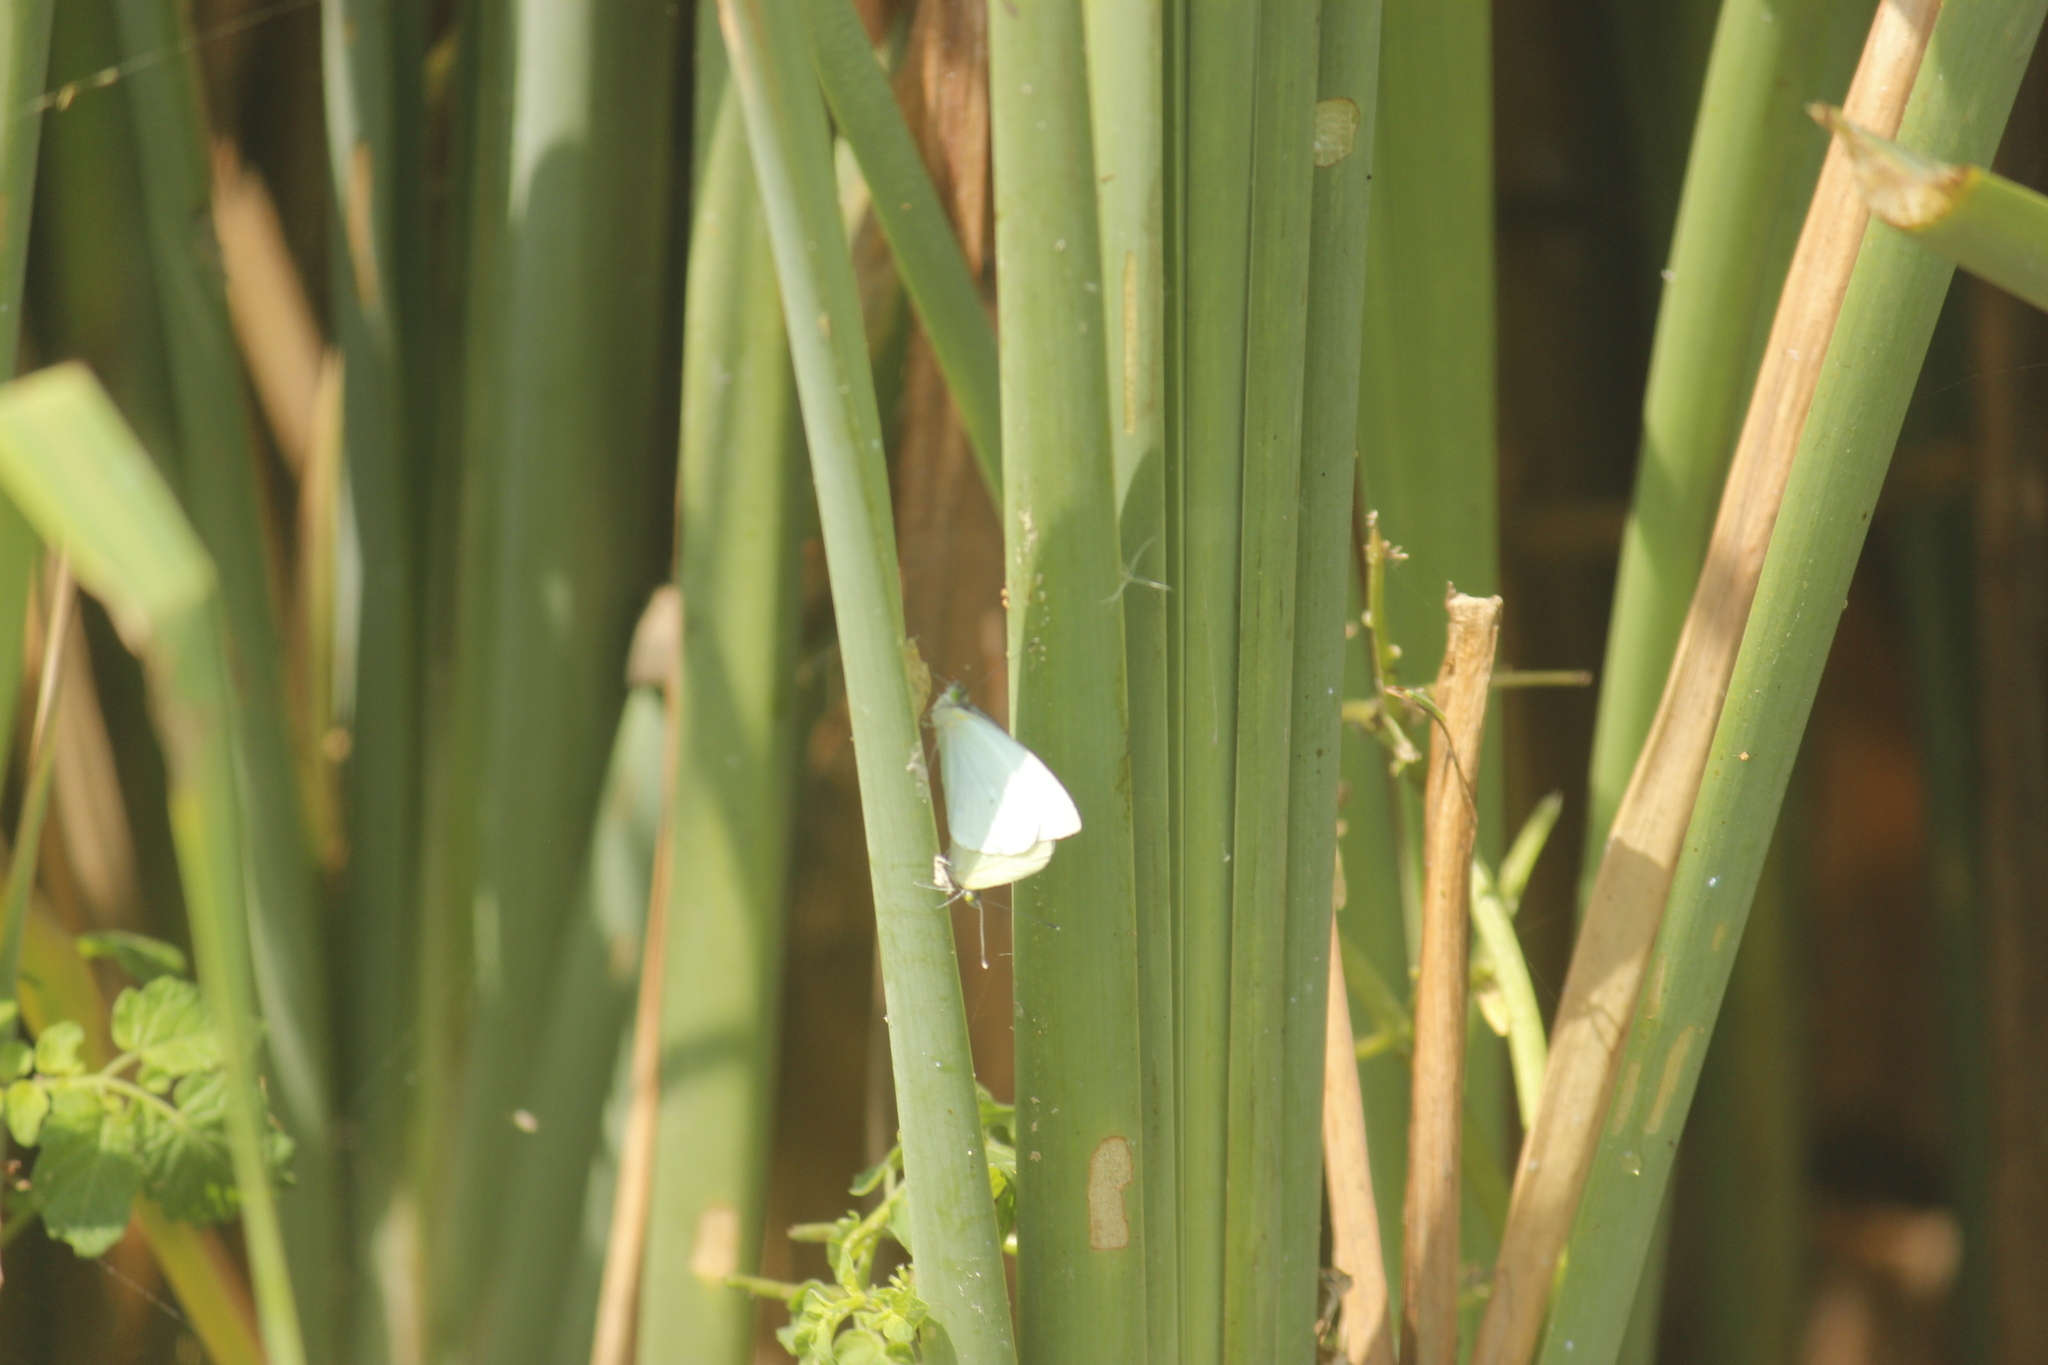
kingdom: Animalia
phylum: Arthropoda
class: Insecta
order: Lepidoptera
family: Pieridae
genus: Leptophobia
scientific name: Leptophobia aripa
